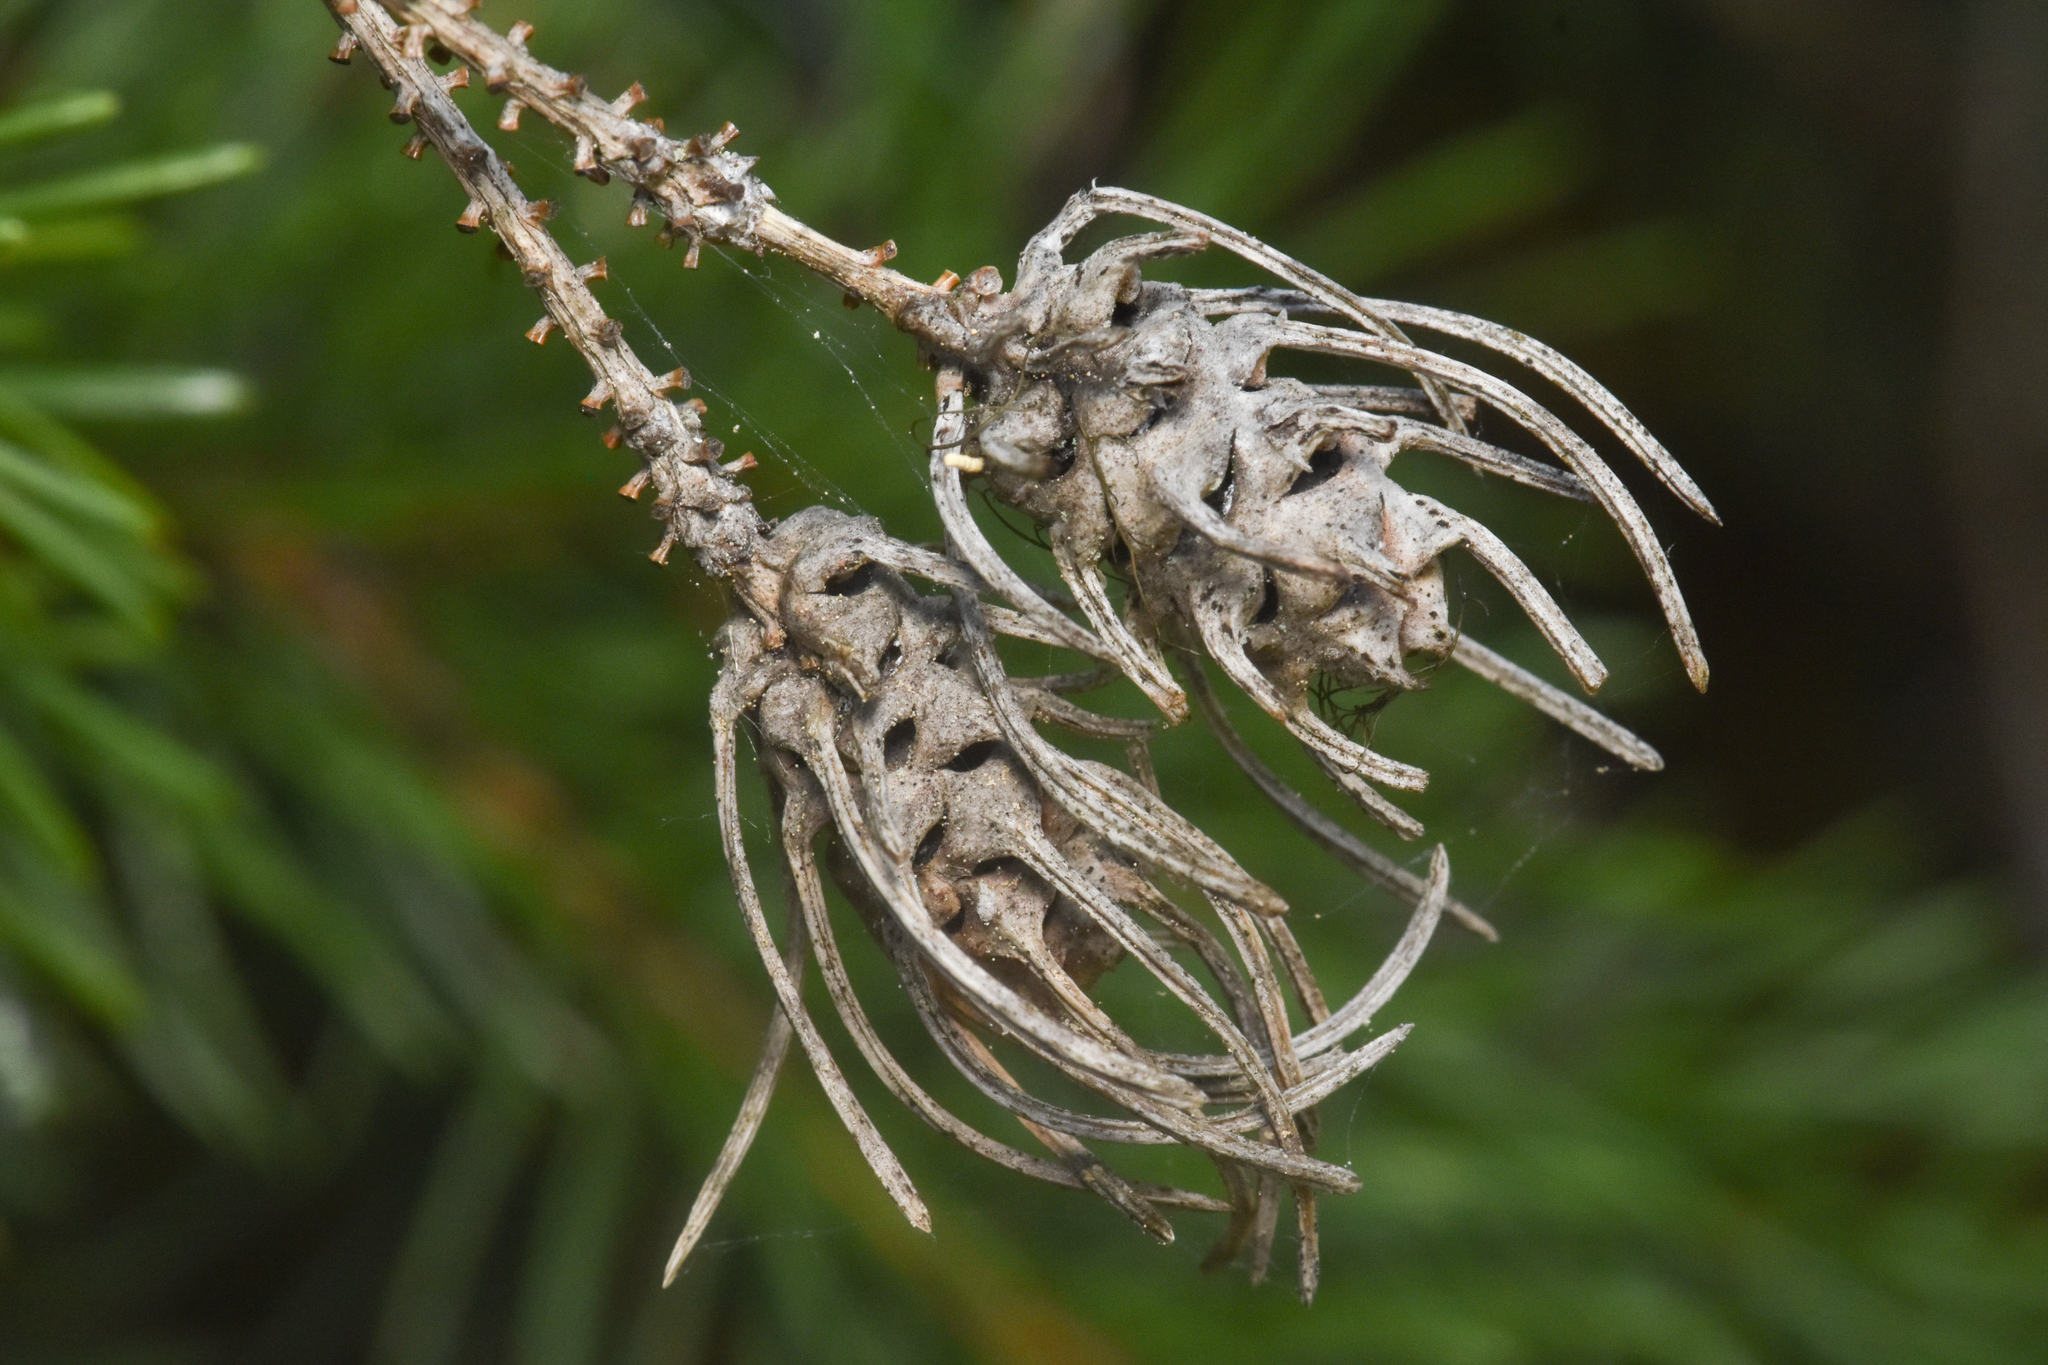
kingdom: Animalia
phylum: Arthropoda
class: Insecta
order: Hemiptera
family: Adelgidae
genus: Adelges
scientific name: Adelges cooleyi
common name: Cooley spruce gall adelgid
